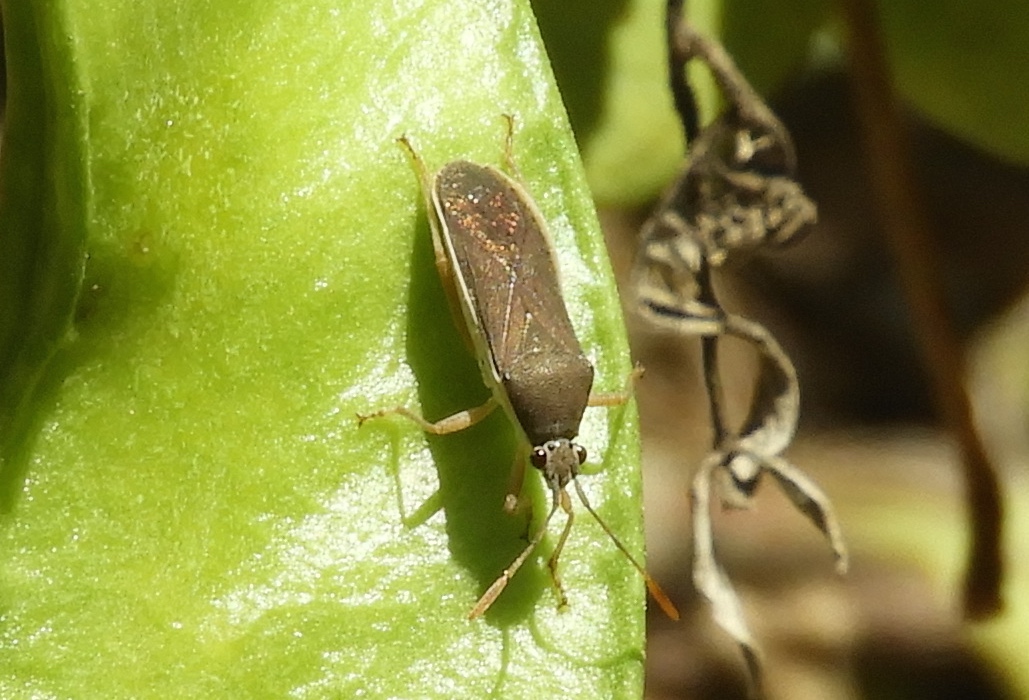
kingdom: Animalia
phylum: Arthropoda
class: Insecta
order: Hemiptera
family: Coreidae
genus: Catorhintha
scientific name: Catorhintha
